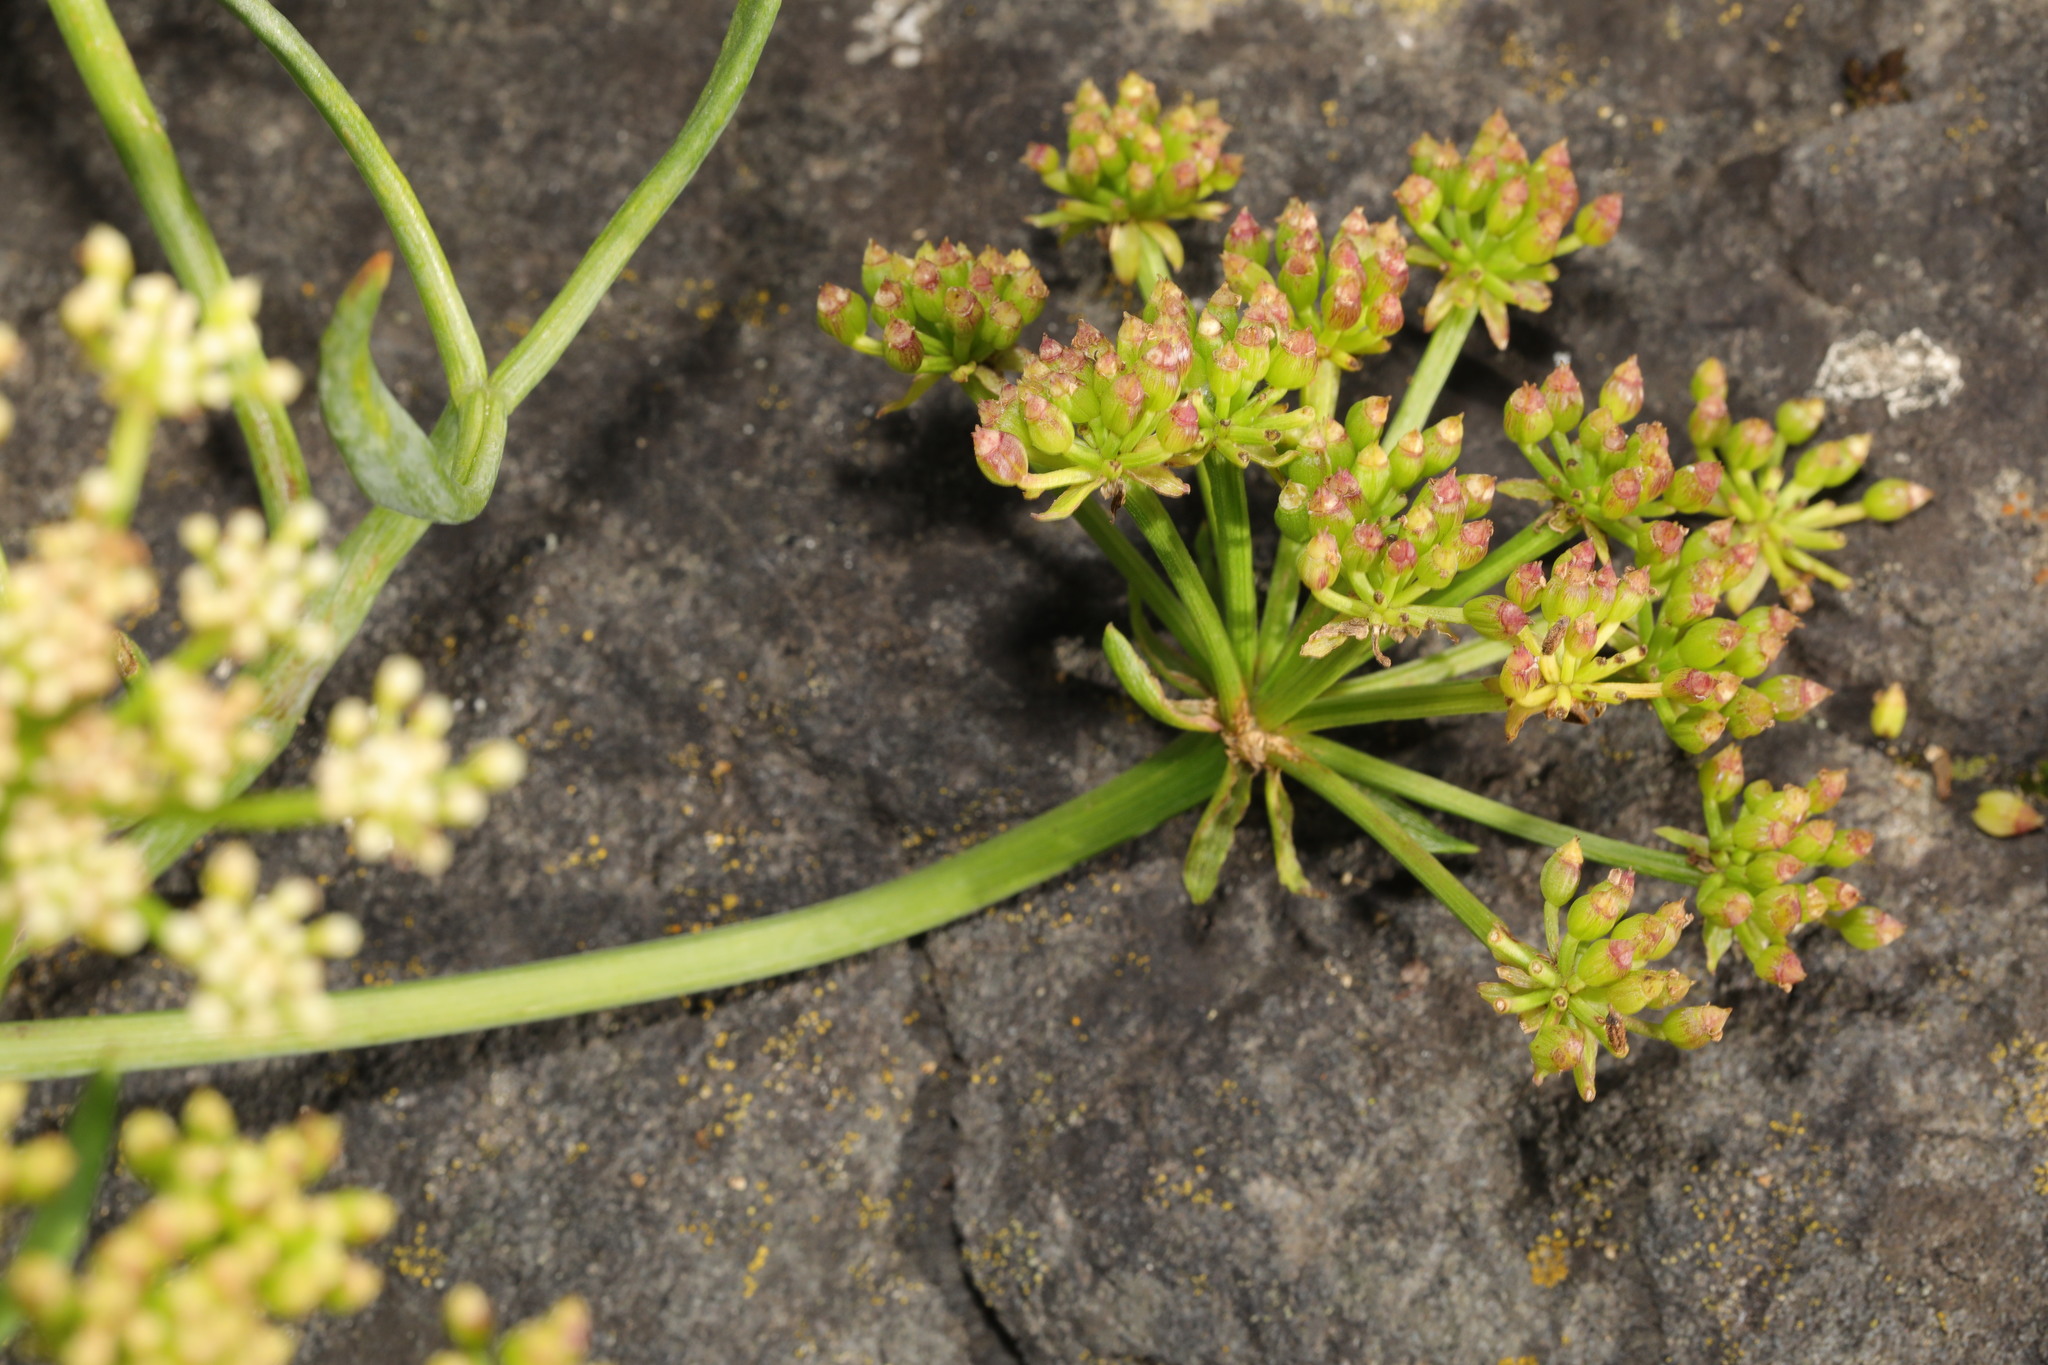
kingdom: Plantae
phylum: Tracheophyta
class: Magnoliopsida
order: Apiales
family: Apiaceae
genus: Crithmum
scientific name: Crithmum maritimum
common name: Rock samphire
